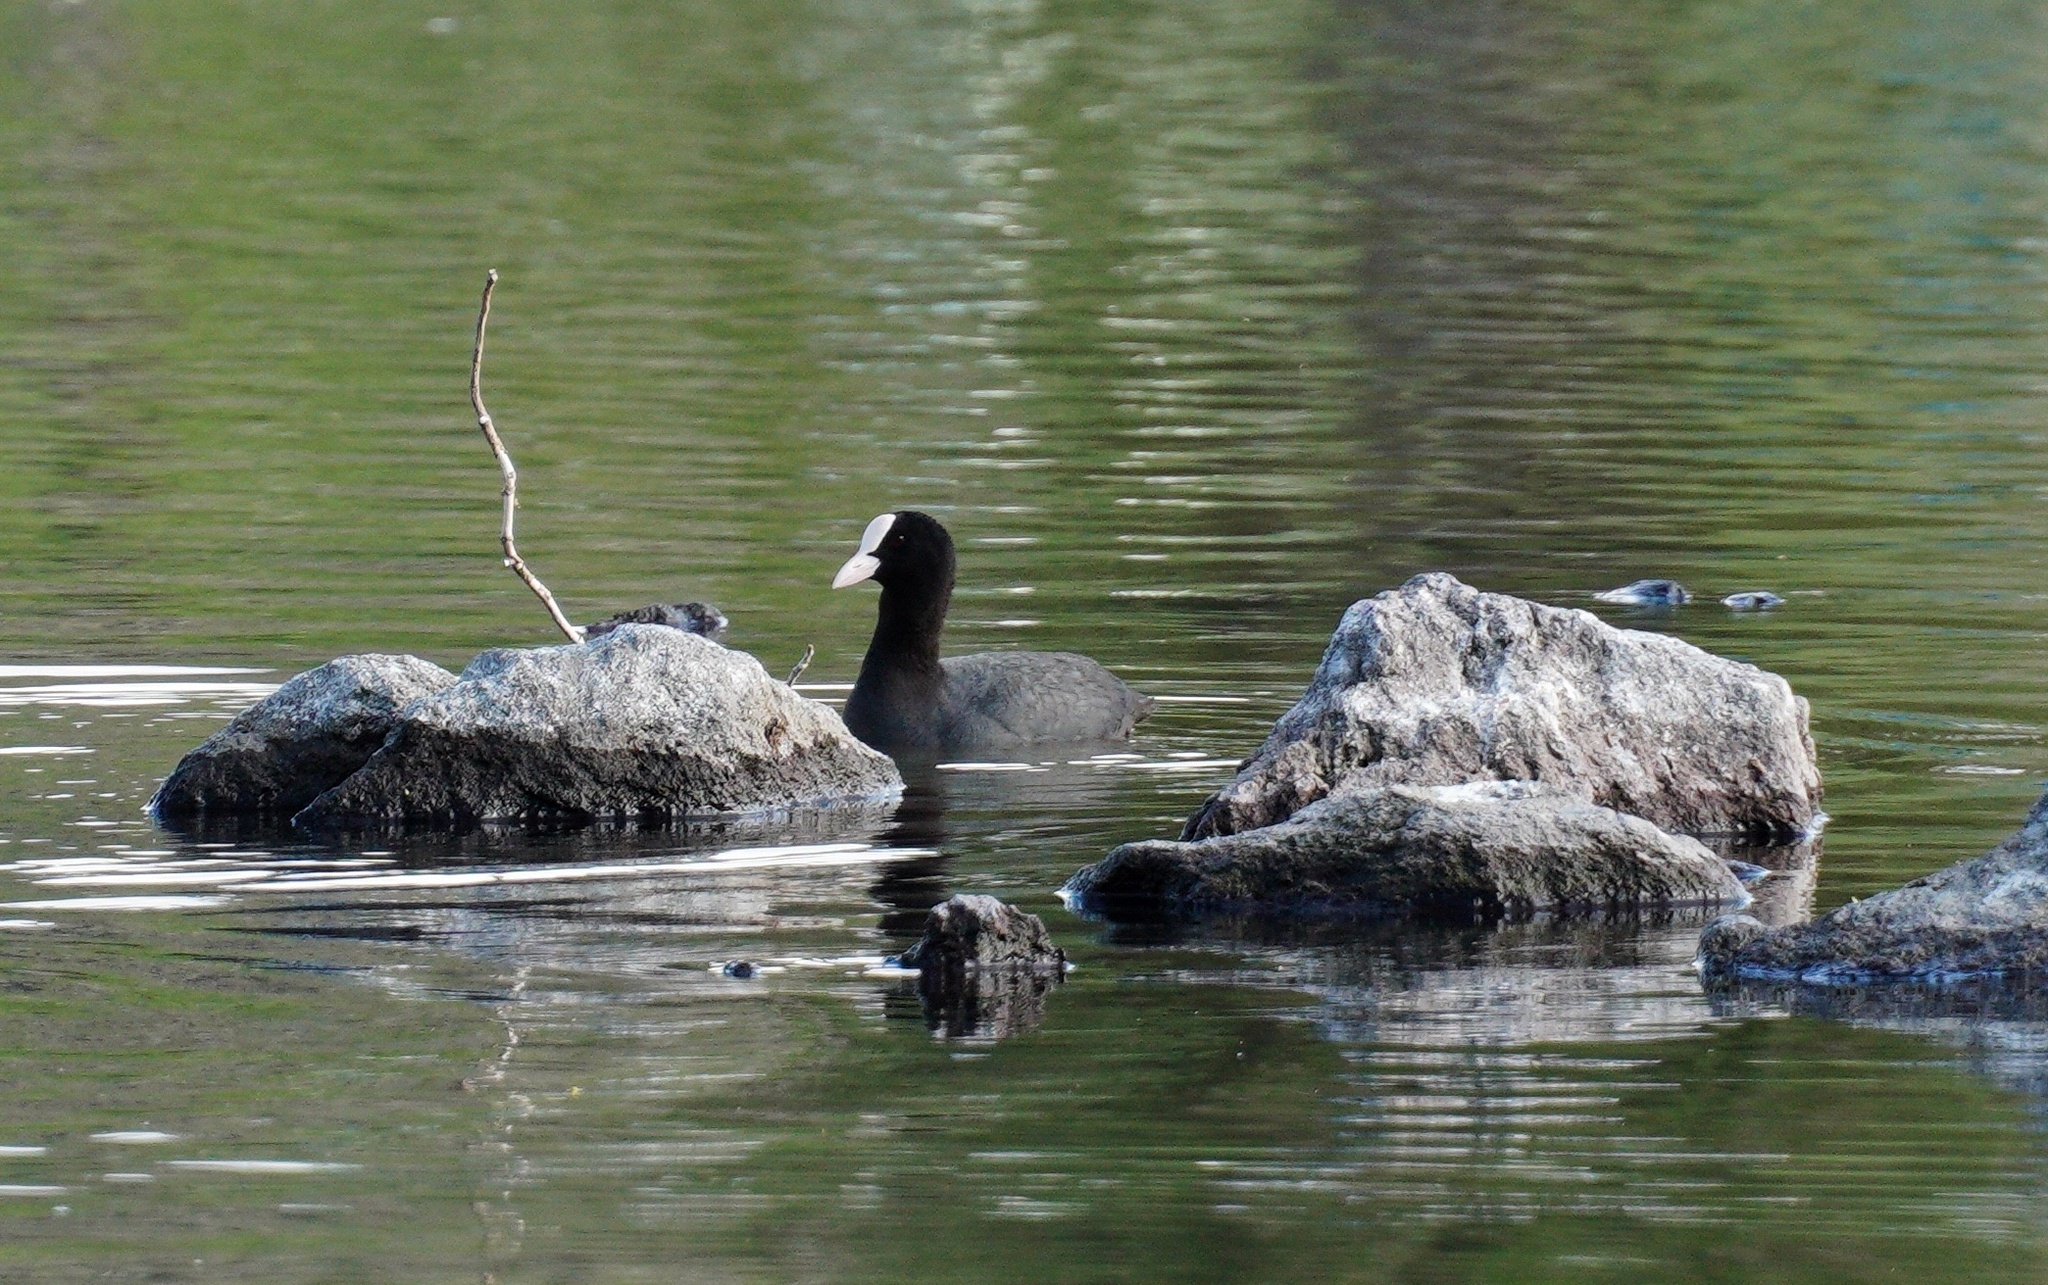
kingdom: Animalia
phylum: Chordata
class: Aves
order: Gruiformes
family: Rallidae
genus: Fulica
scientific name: Fulica atra
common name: Eurasian coot
